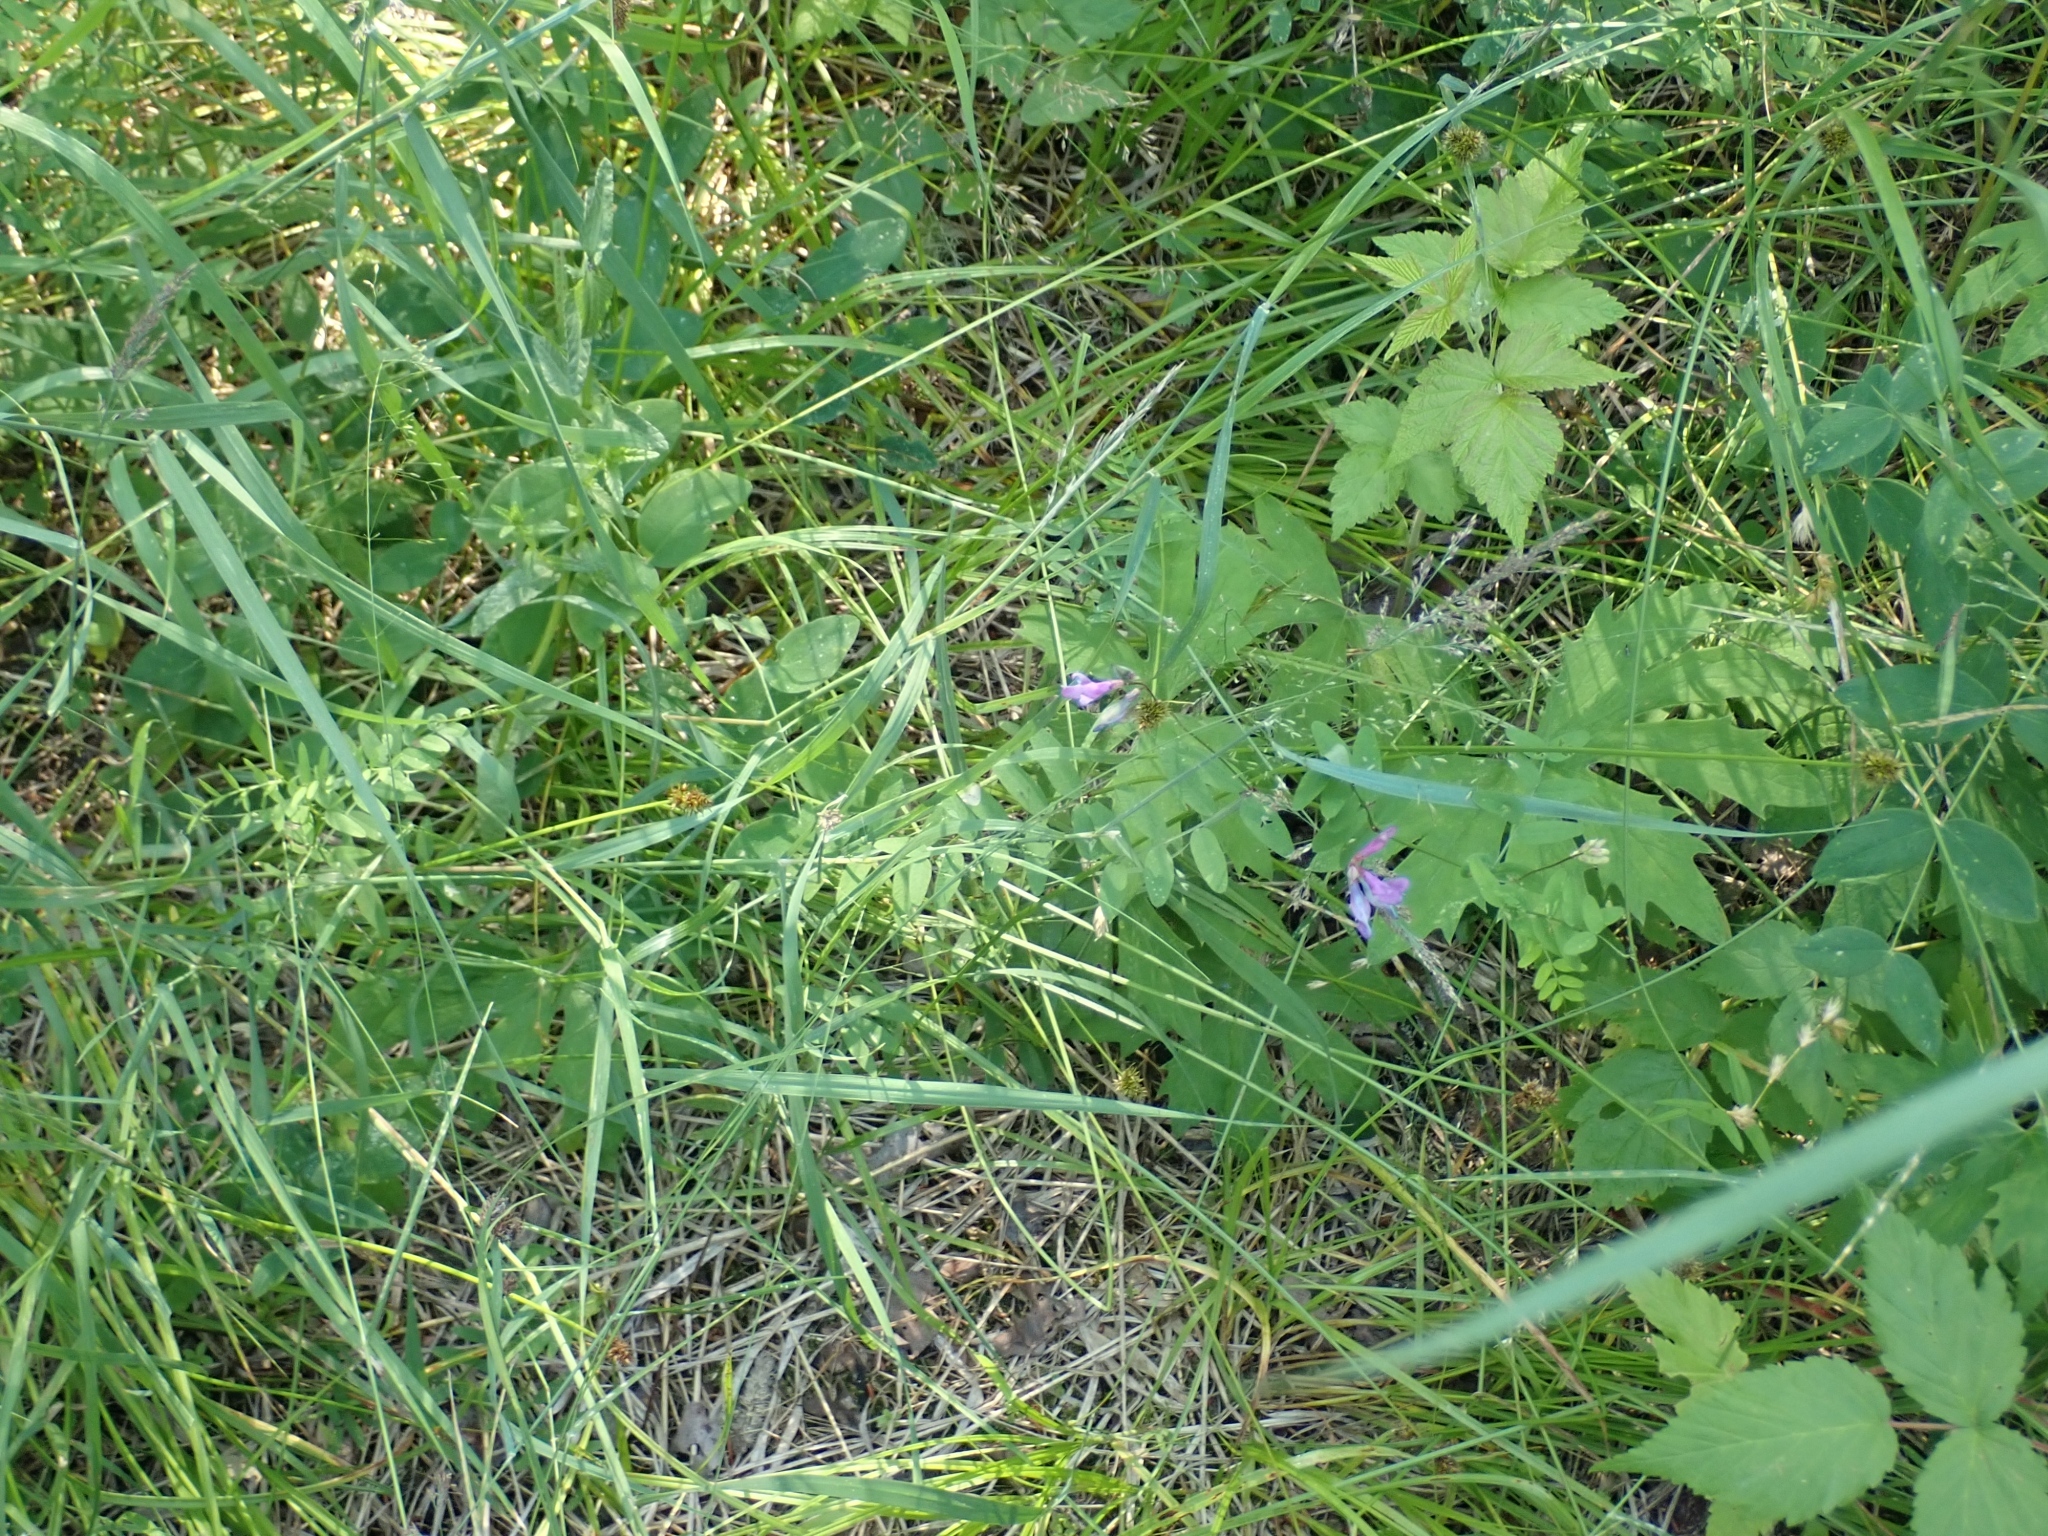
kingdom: Plantae
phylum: Tracheophyta
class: Magnoliopsida
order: Fabales
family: Fabaceae
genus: Vicia
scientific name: Vicia americana
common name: American vetch
